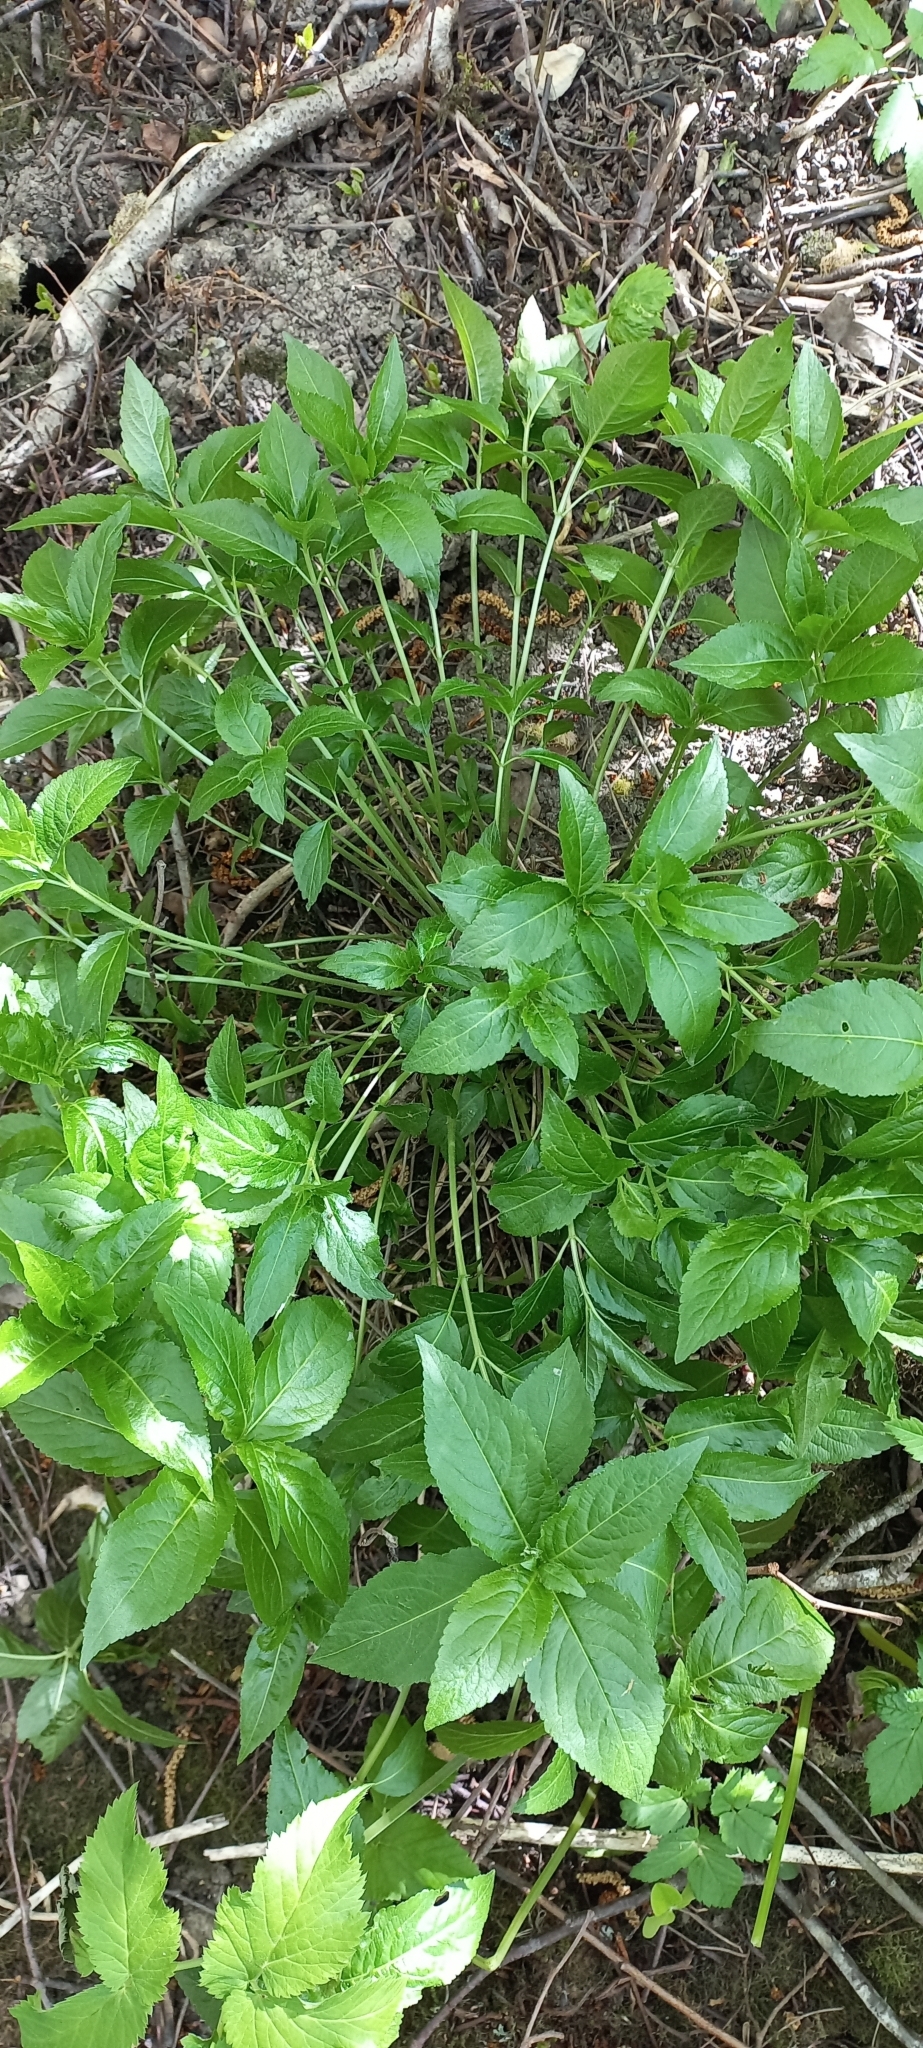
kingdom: Plantae
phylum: Tracheophyta
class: Magnoliopsida
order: Malpighiales
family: Euphorbiaceae
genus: Mercurialis
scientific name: Mercurialis perennis
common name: Dog mercury
